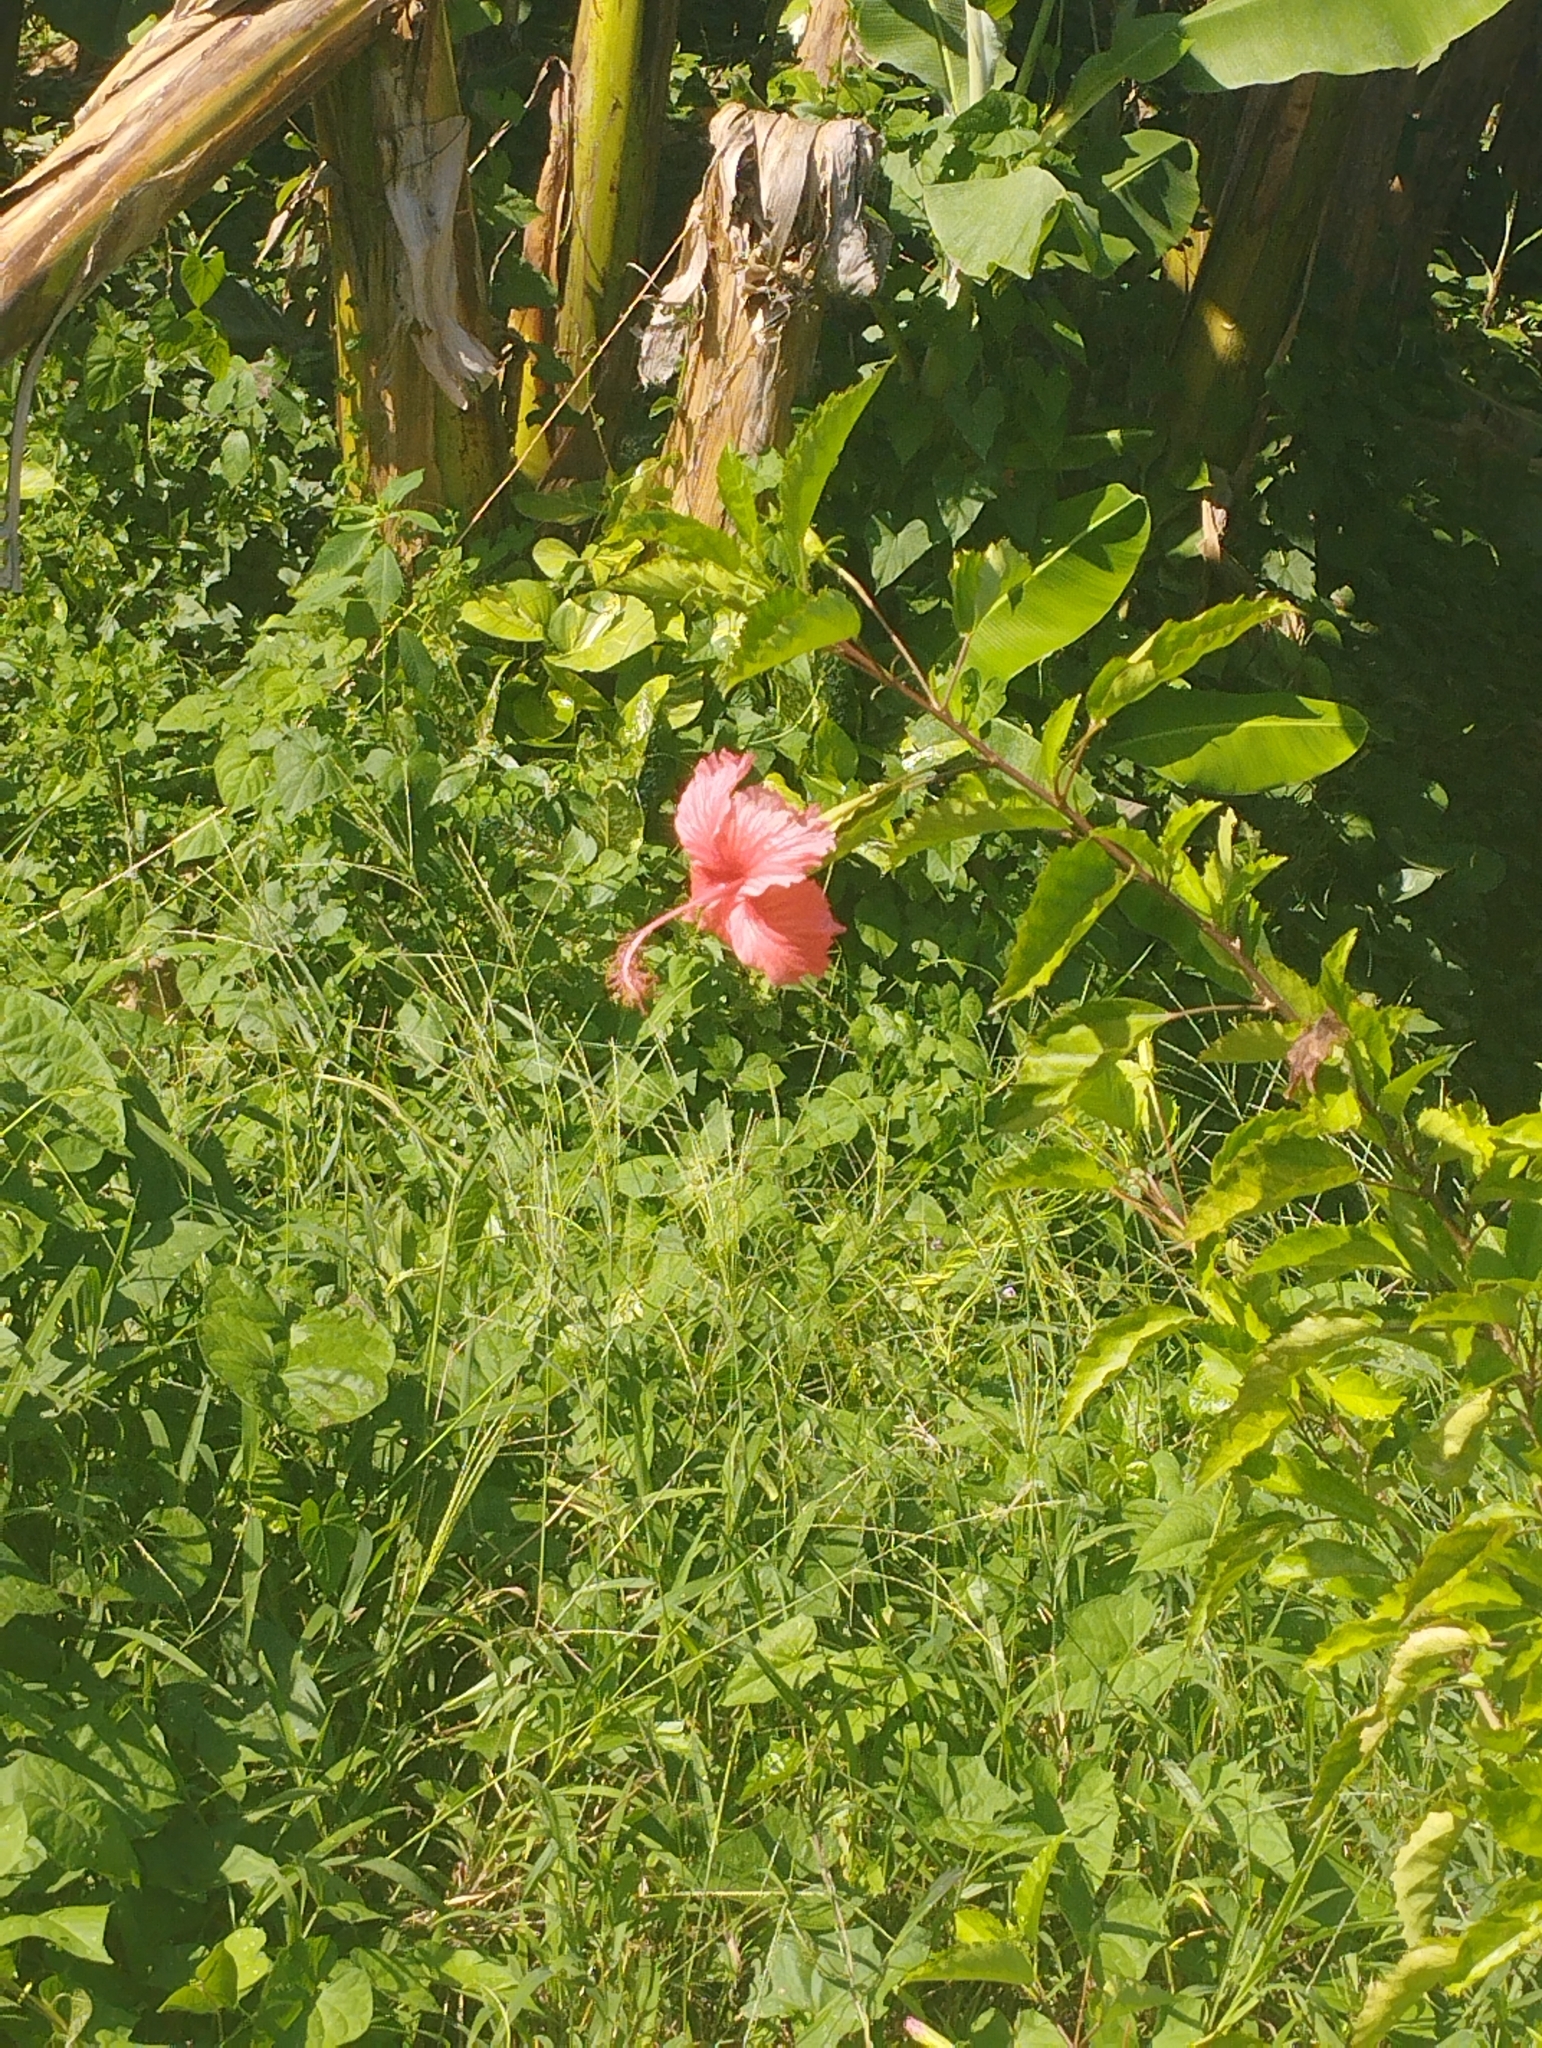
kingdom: Plantae
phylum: Tracheophyta
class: Magnoliopsida
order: Malvales
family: Malvaceae
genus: Hibiscus
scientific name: Hibiscus archeri
